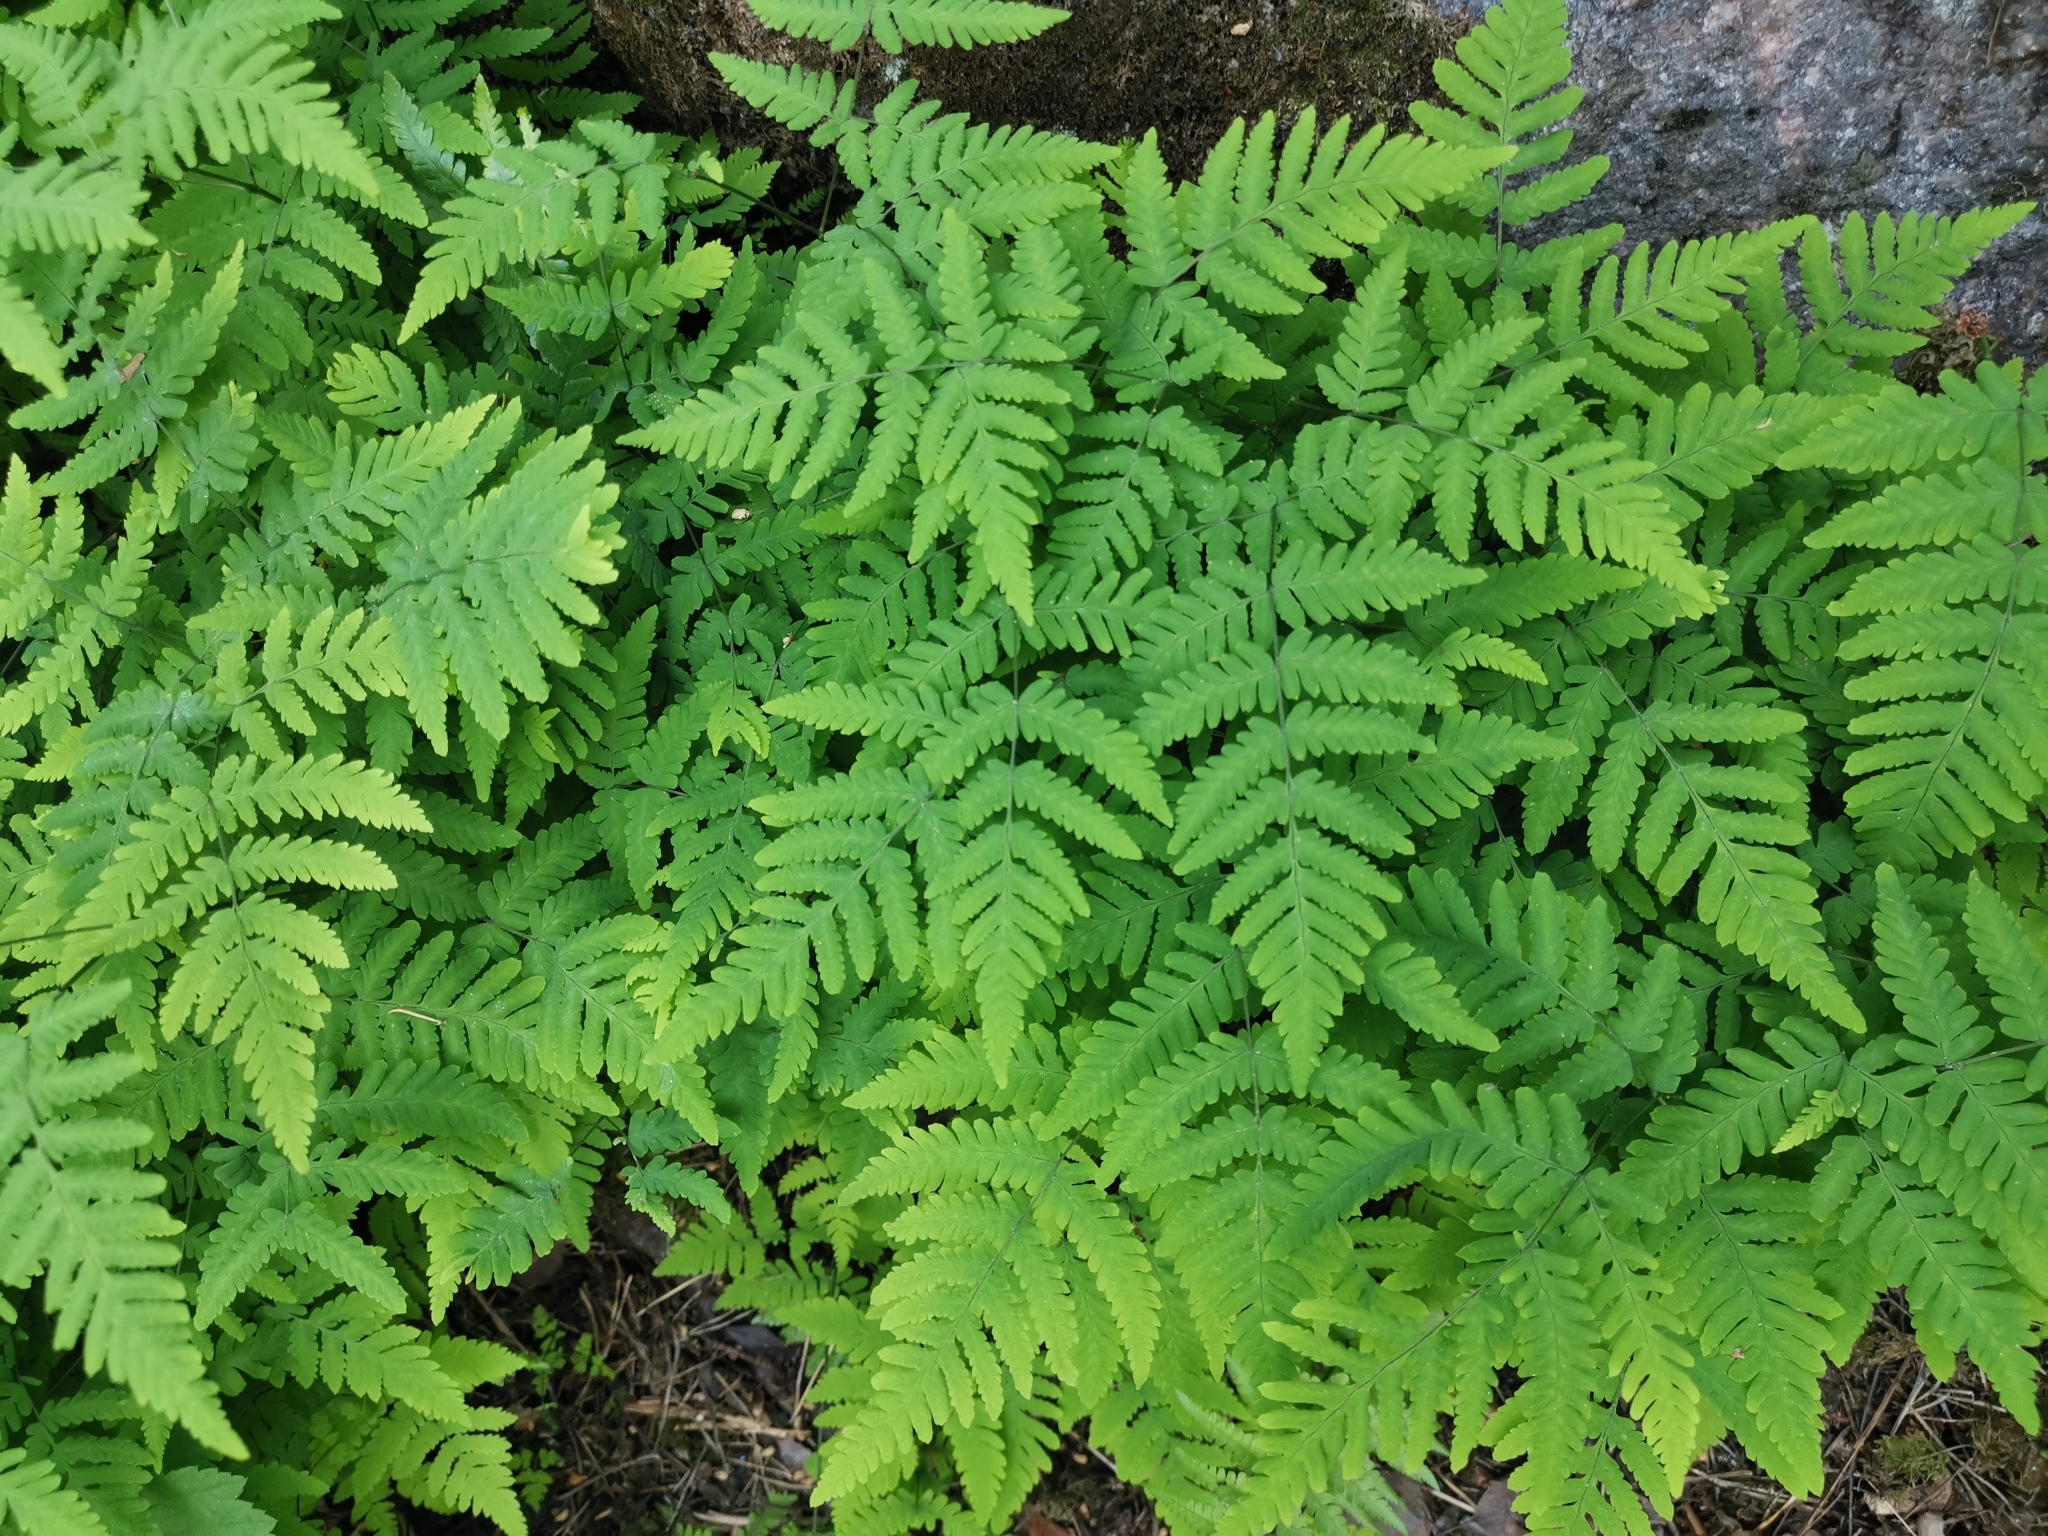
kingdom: Plantae
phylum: Tracheophyta
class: Polypodiopsida
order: Polypodiales
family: Cystopteridaceae
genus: Gymnocarpium
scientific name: Gymnocarpium dryopteris
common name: Oak fern
